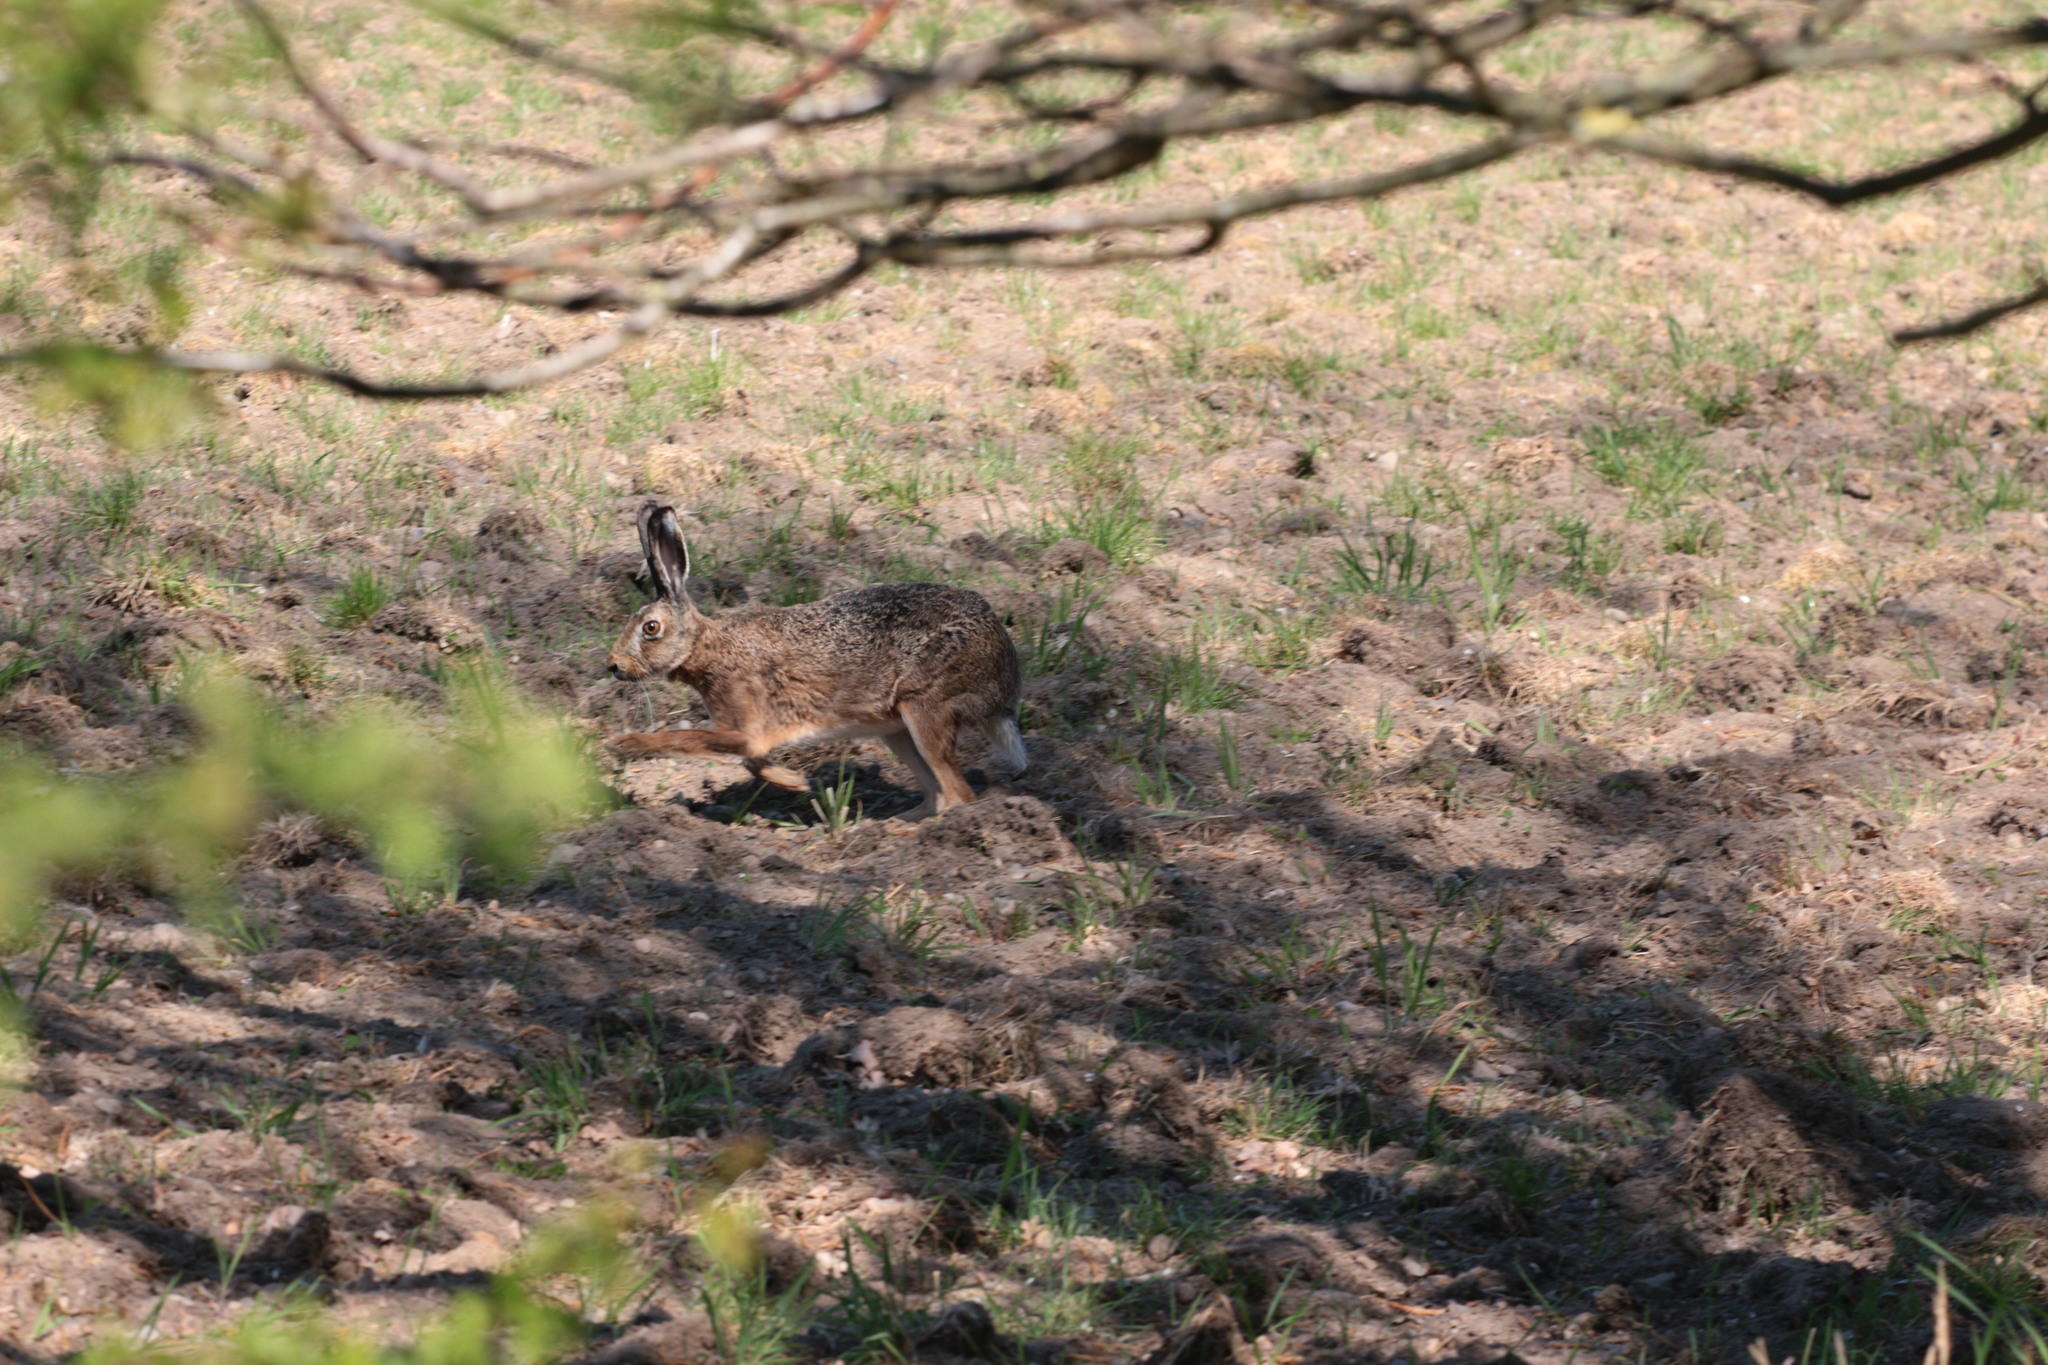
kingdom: Animalia
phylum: Chordata
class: Mammalia
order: Lagomorpha
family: Leporidae
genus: Lepus
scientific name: Lepus europaeus
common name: European hare
